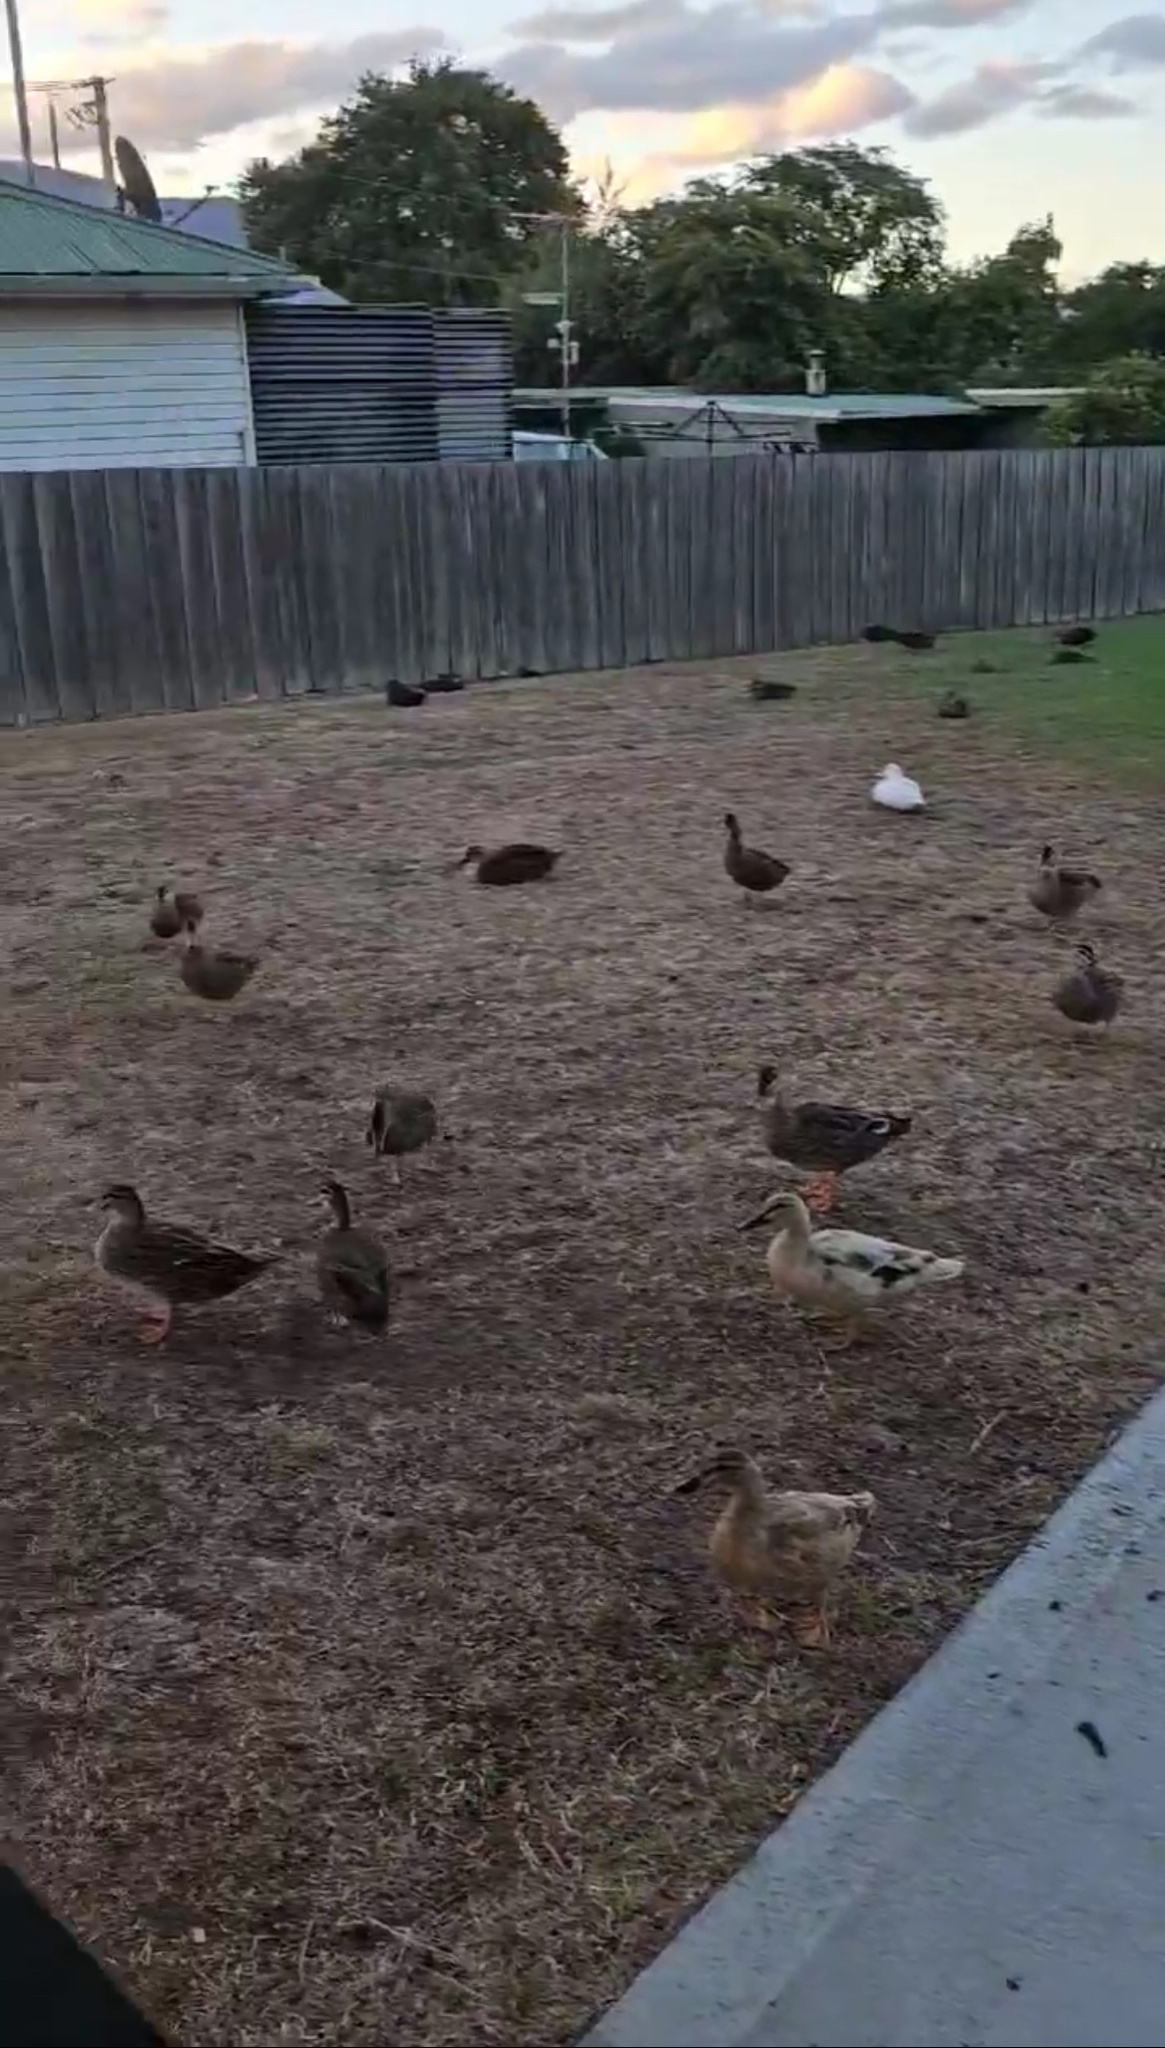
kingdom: Animalia
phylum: Chordata
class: Aves
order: Anseriformes
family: Anatidae
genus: Anas
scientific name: Anas platyrhynchos
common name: Mallard
